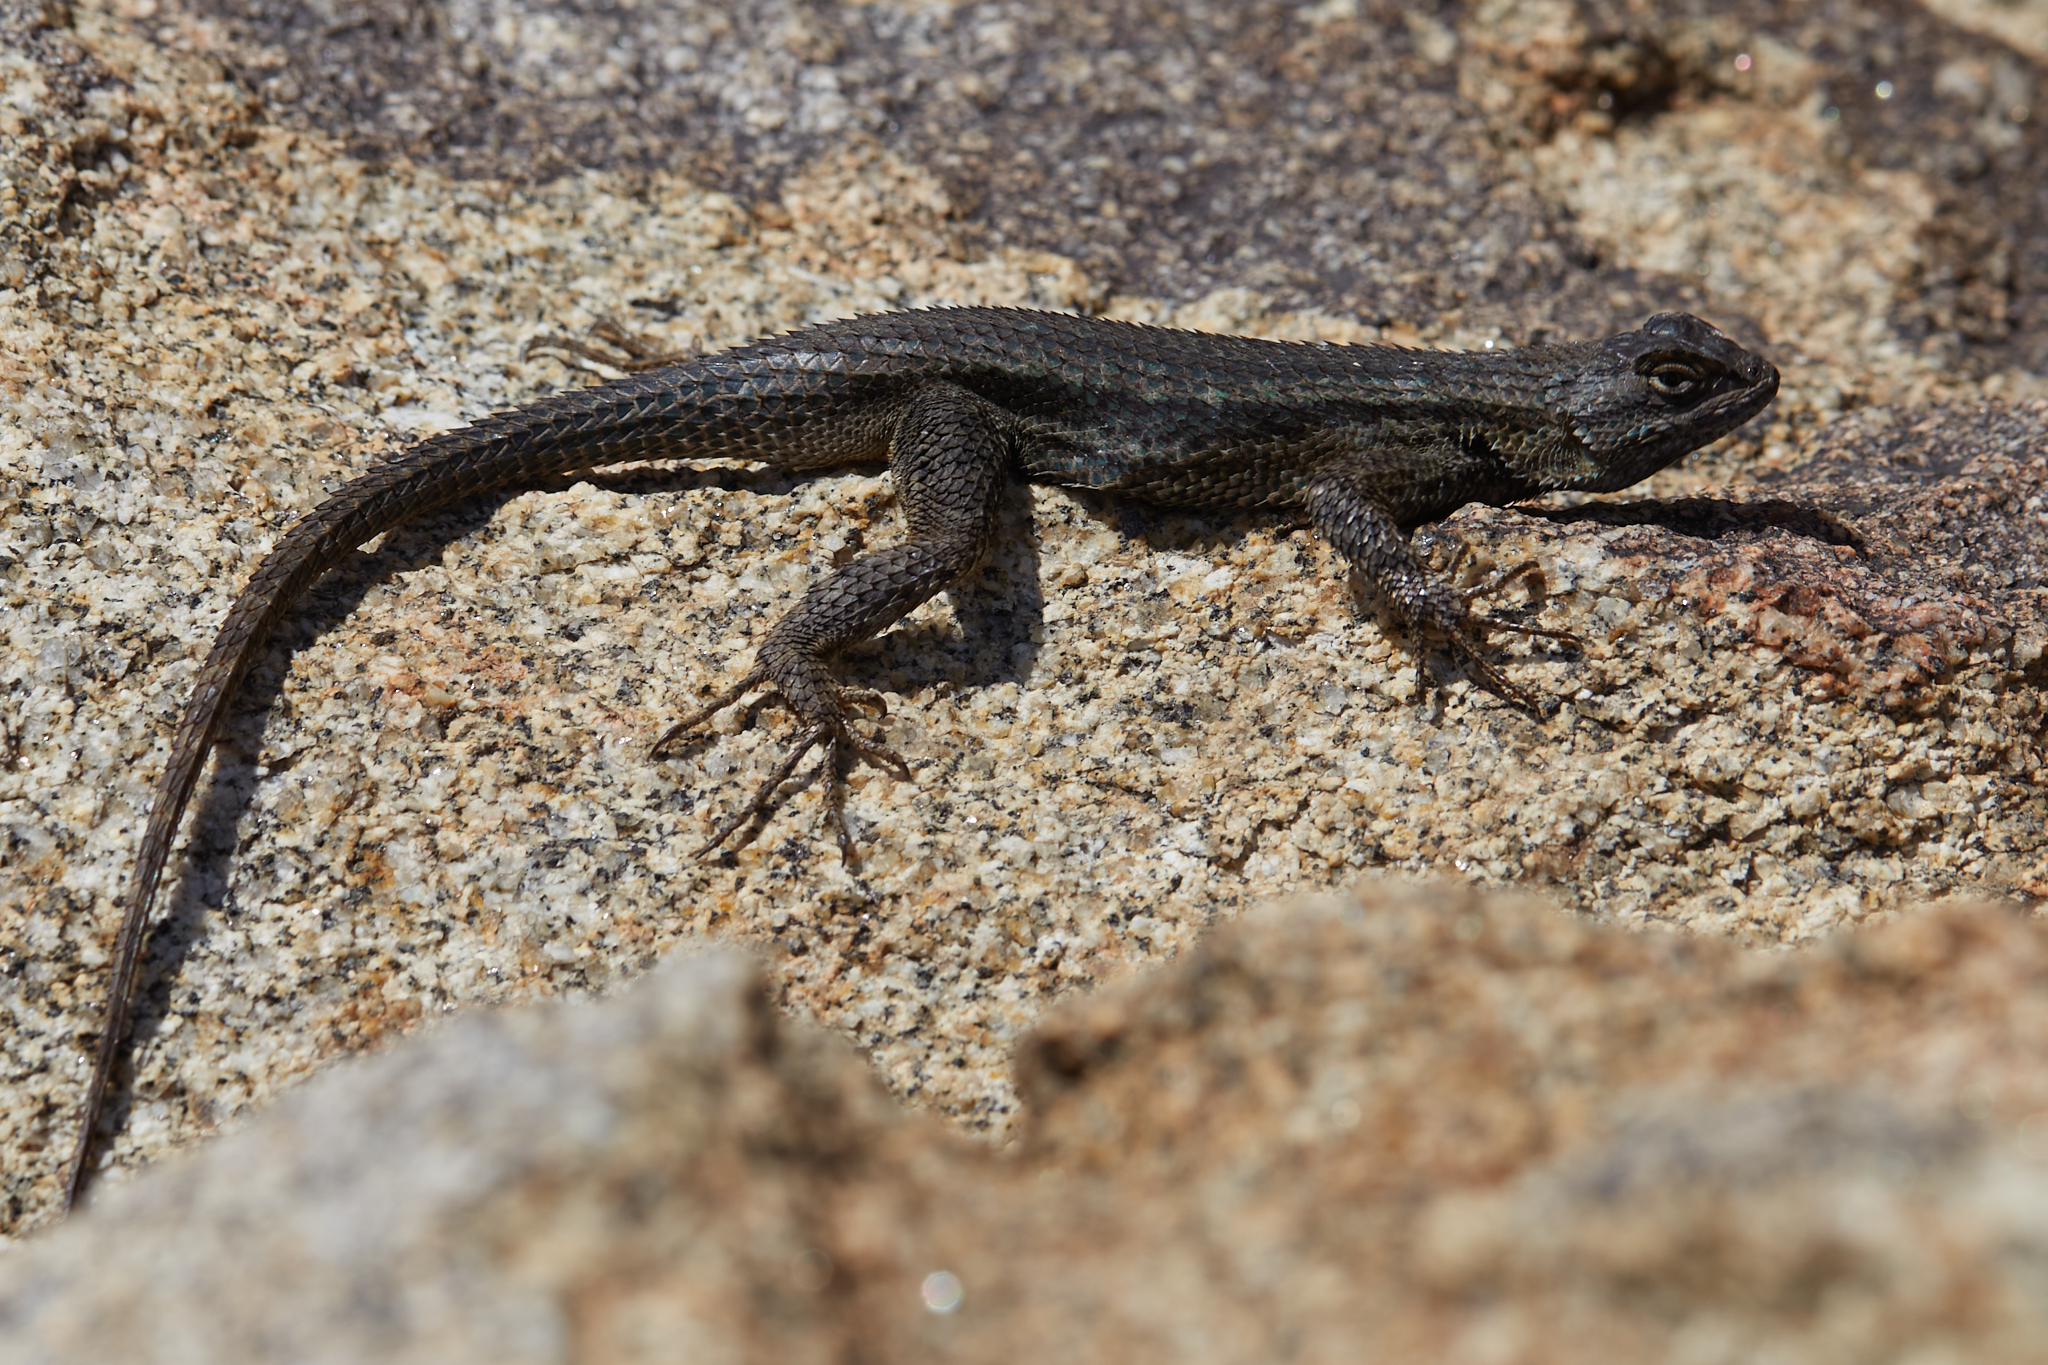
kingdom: Animalia
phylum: Chordata
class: Squamata
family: Phrynosomatidae
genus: Sceloporus
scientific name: Sceloporus occidentalis
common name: Western fence lizard
